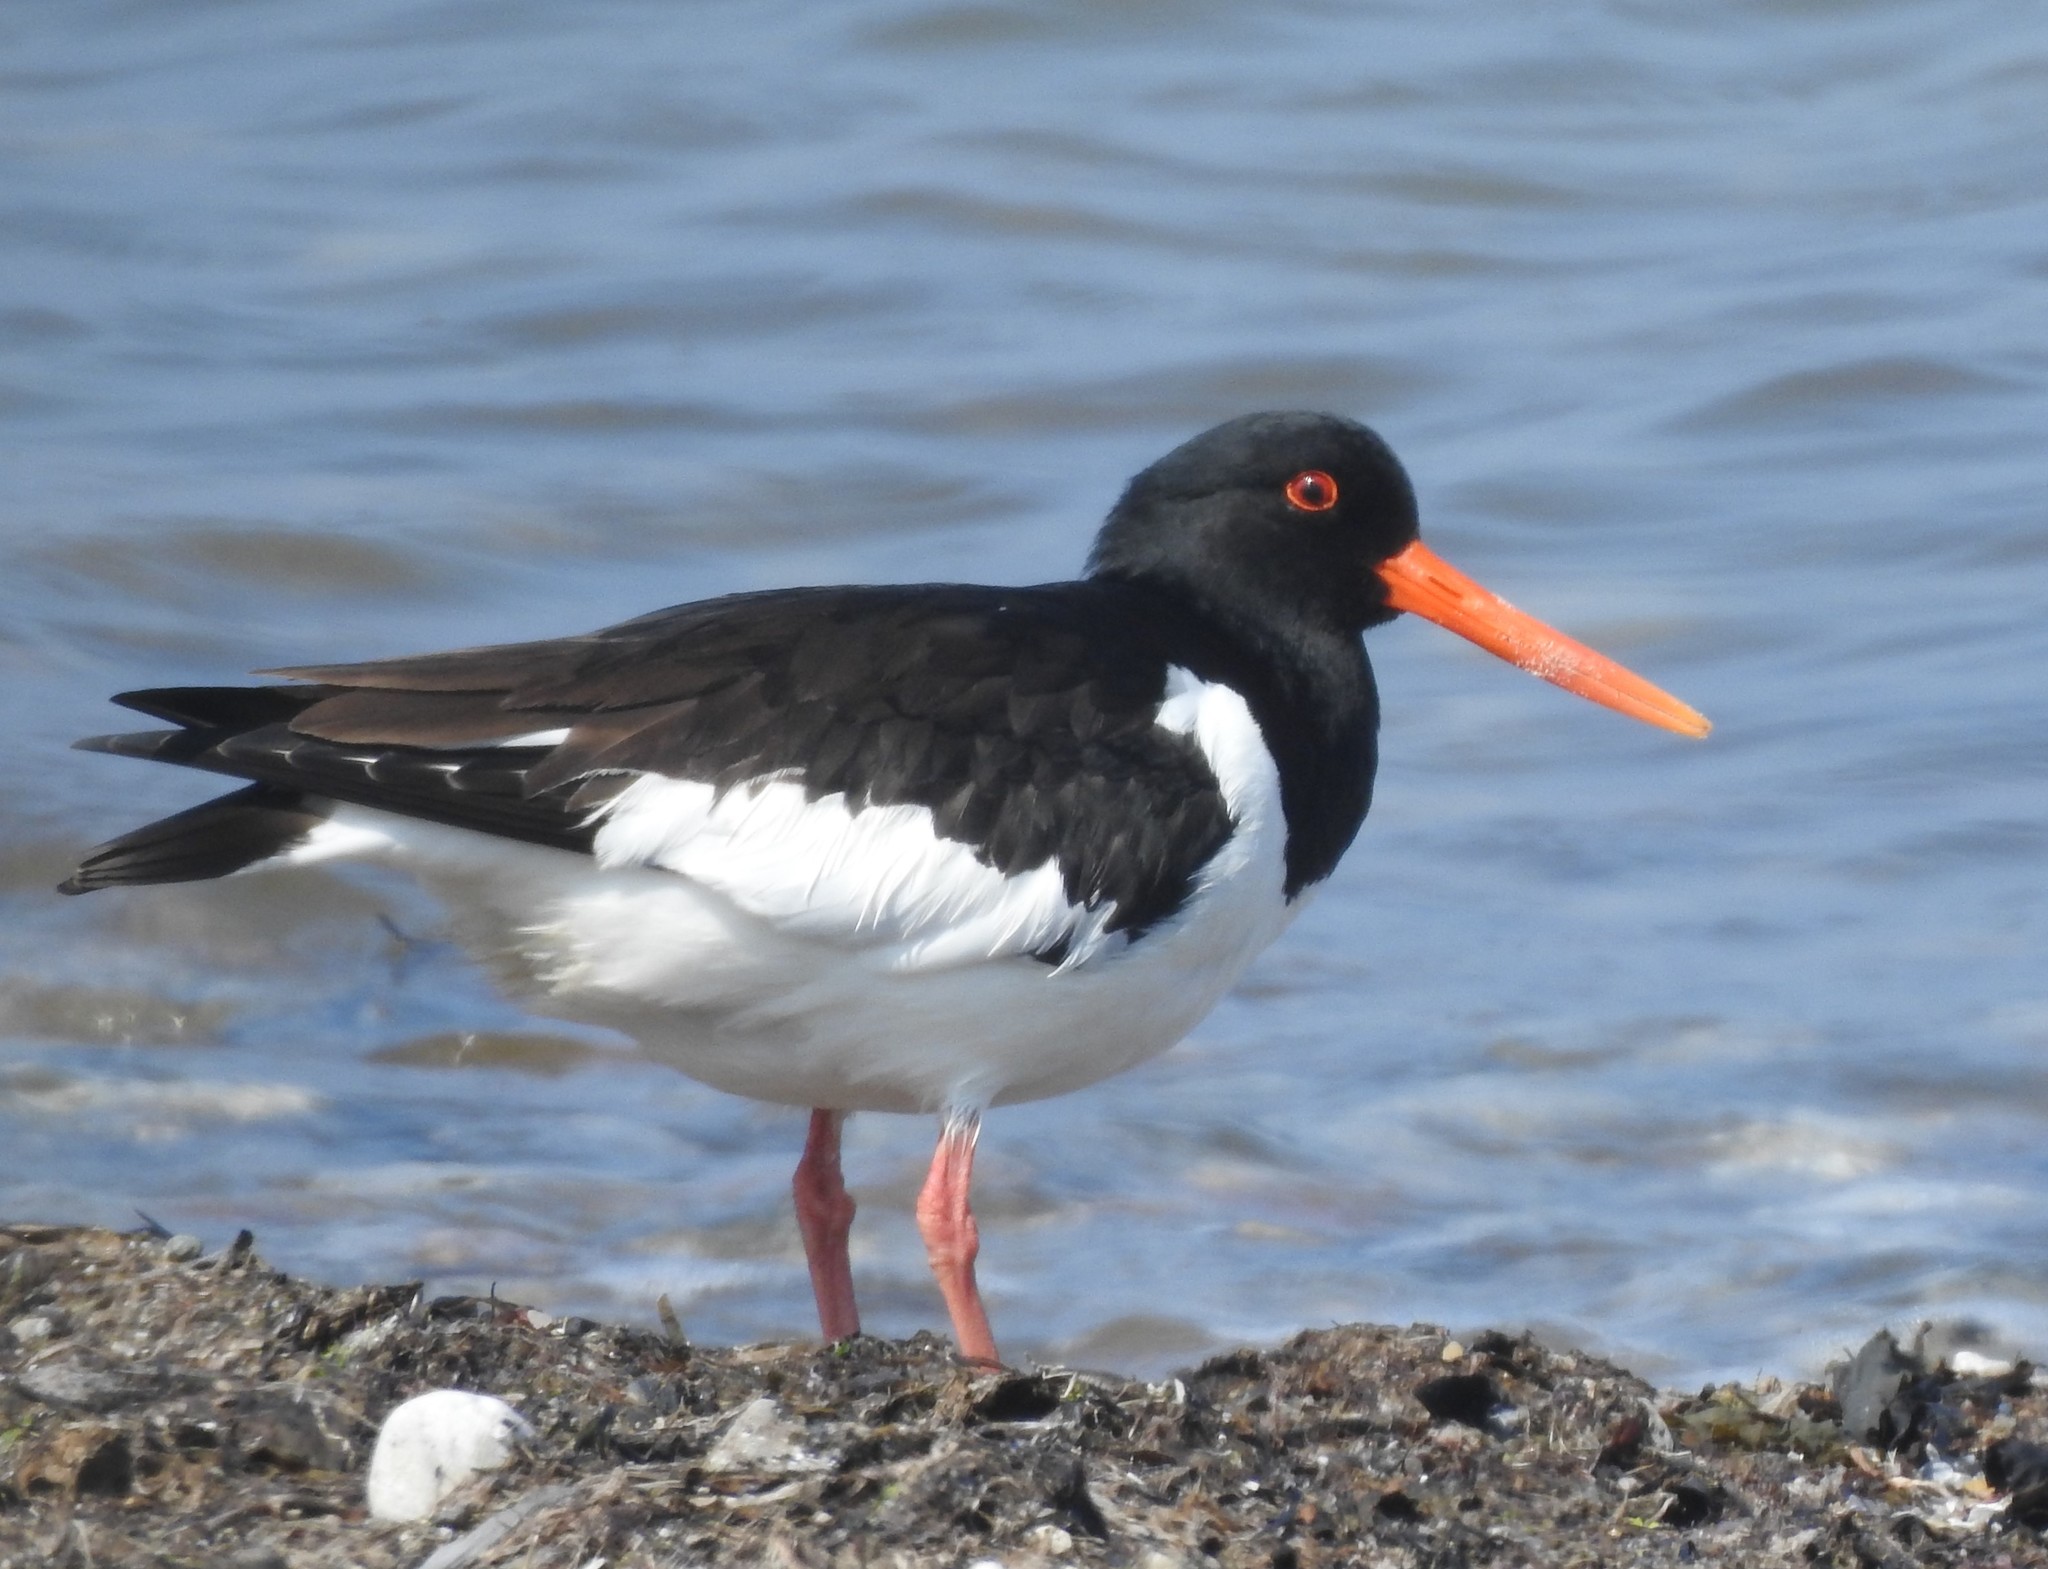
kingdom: Animalia
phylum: Chordata
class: Aves
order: Charadriiformes
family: Haematopodidae
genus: Haematopus
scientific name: Haematopus ostralegus
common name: Eurasian oystercatcher
